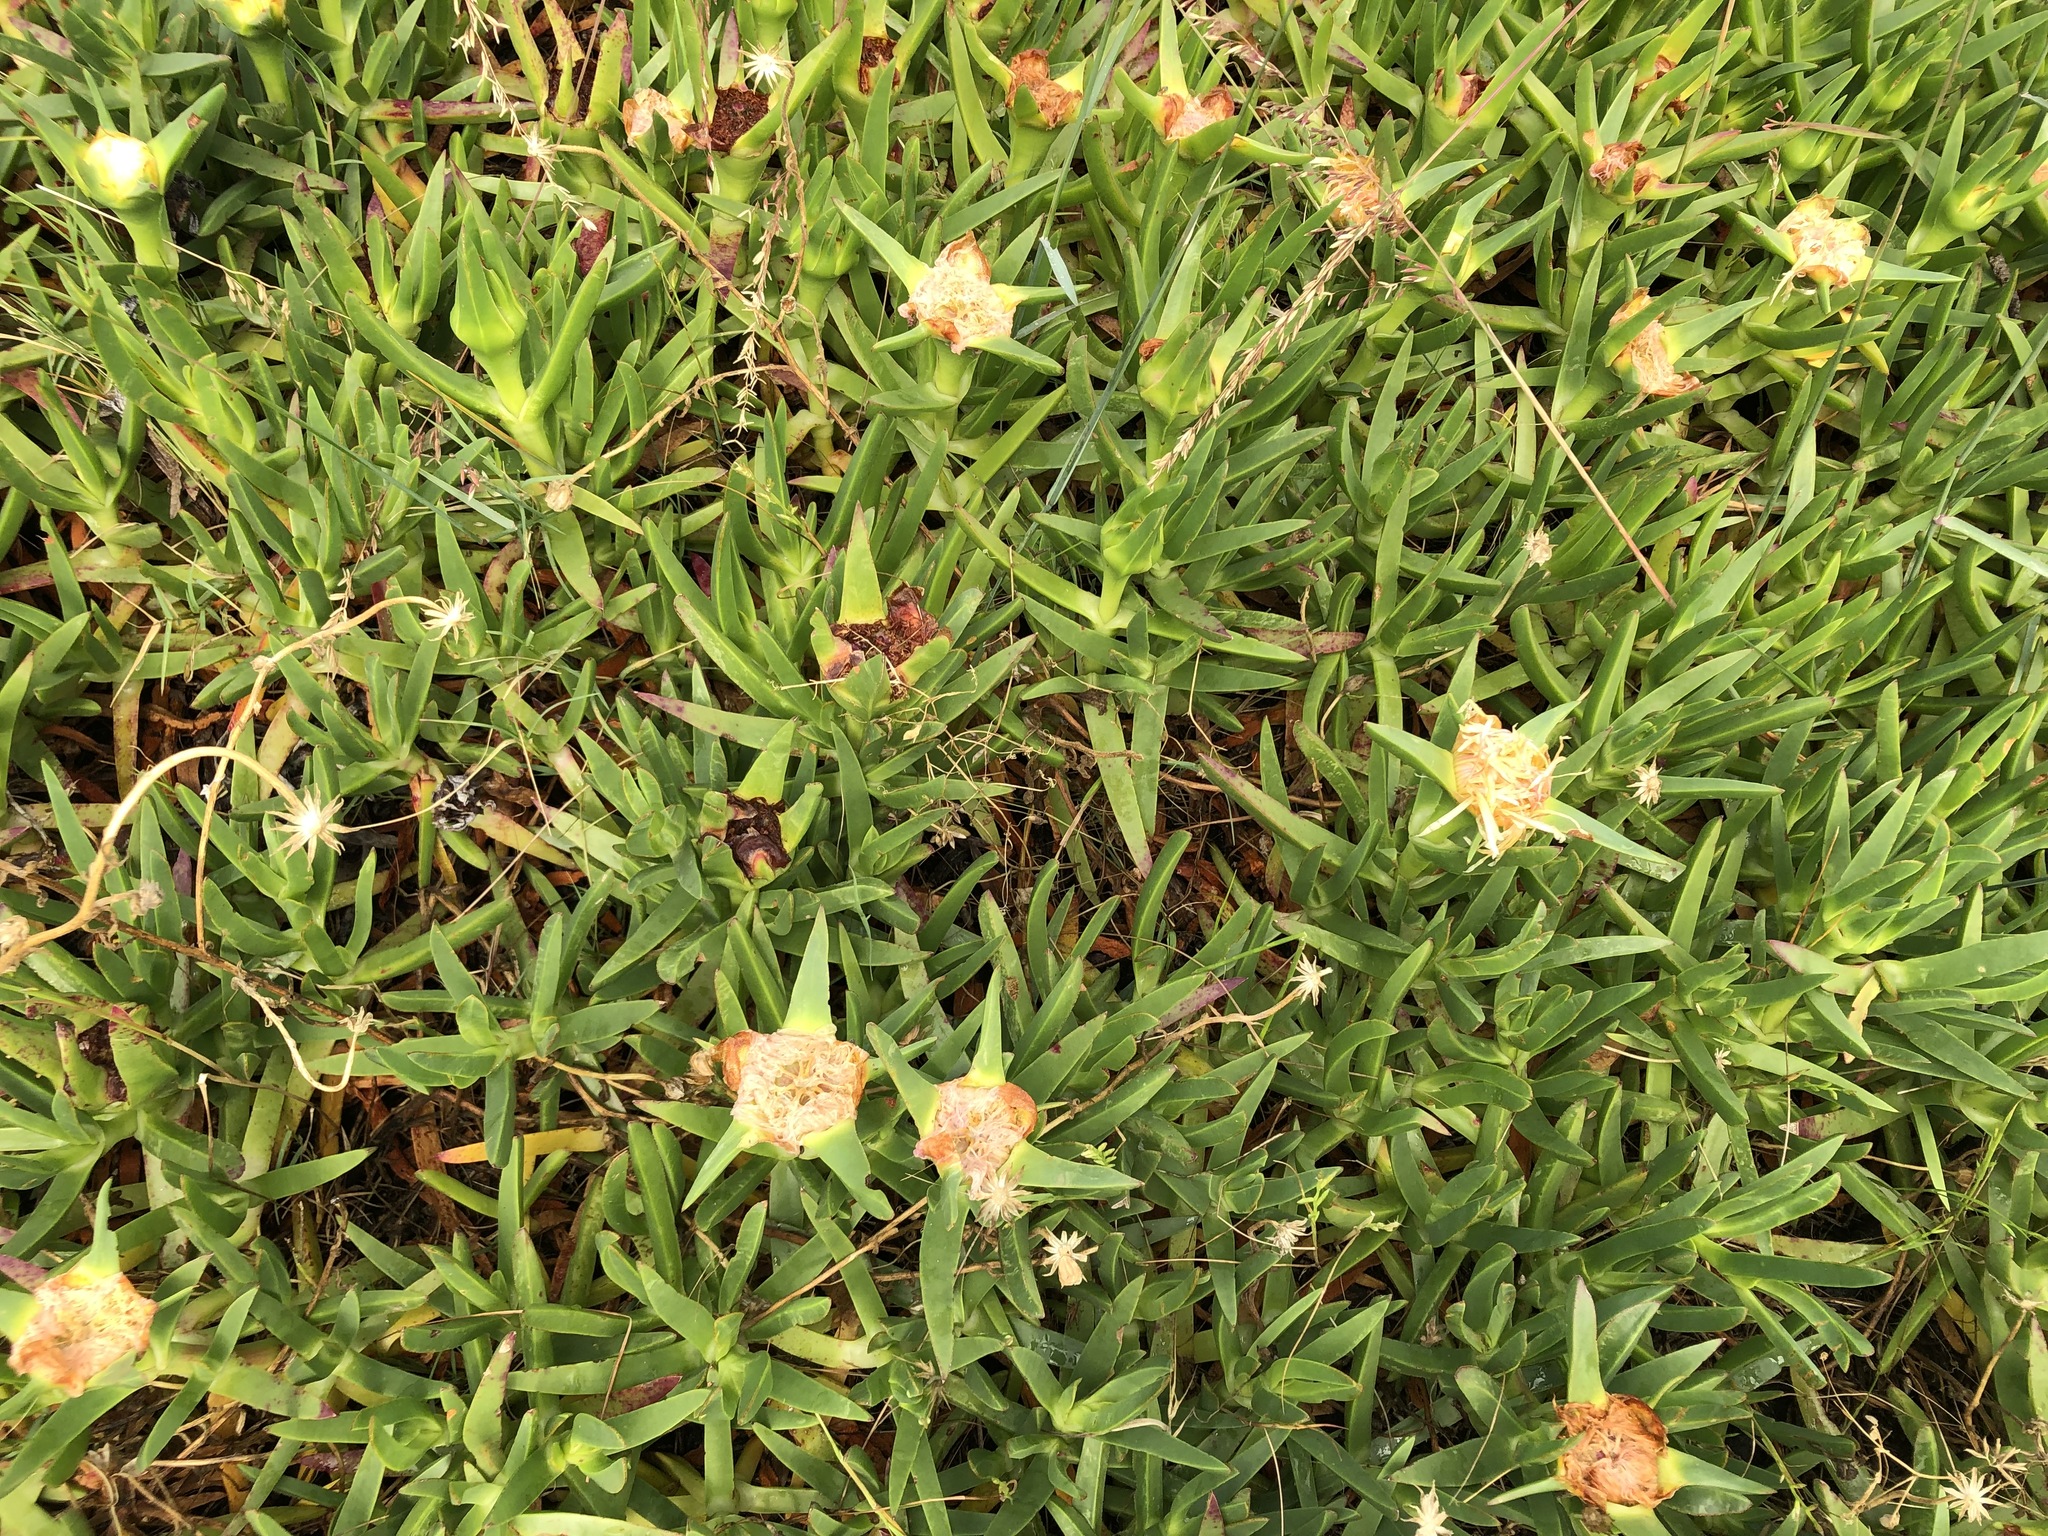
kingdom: Plantae
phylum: Tracheophyta
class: Magnoliopsida
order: Caryophyllales
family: Aizoaceae
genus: Carpobrotus
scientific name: Carpobrotus edulis
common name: Hottentot-fig
